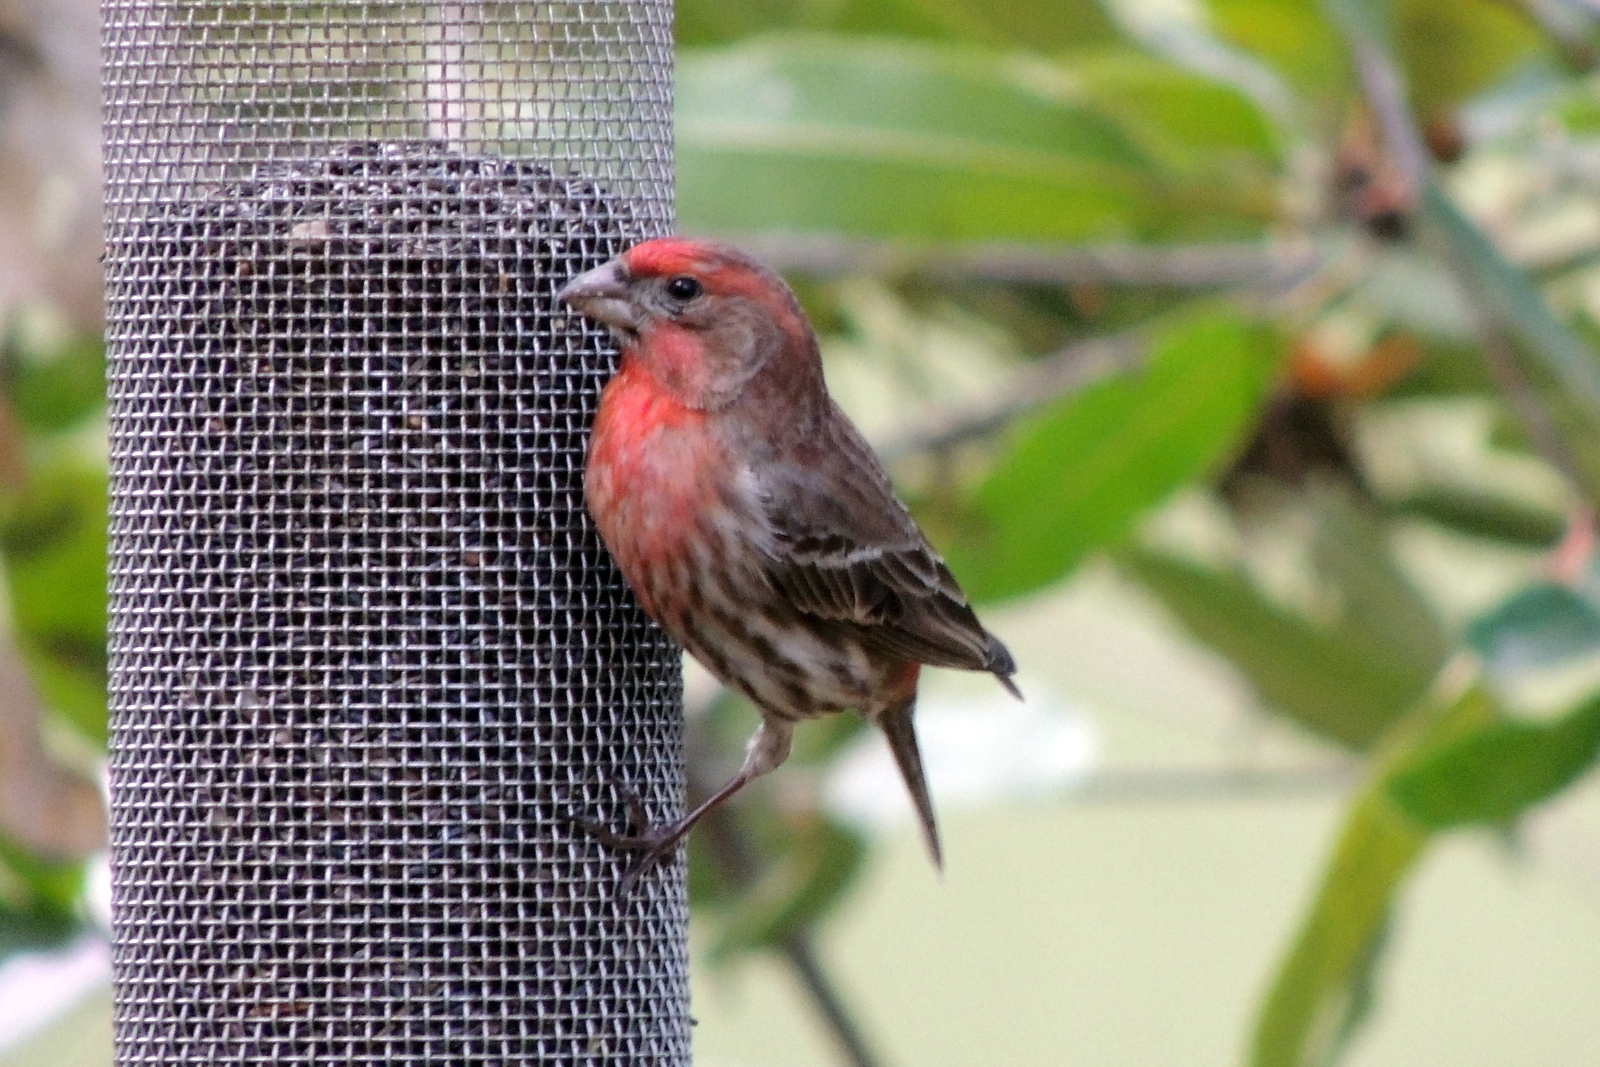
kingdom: Animalia
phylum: Chordata
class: Aves
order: Passeriformes
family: Fringillidae
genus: Haemorhous
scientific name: Haemorhous mexicanus
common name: House finch
